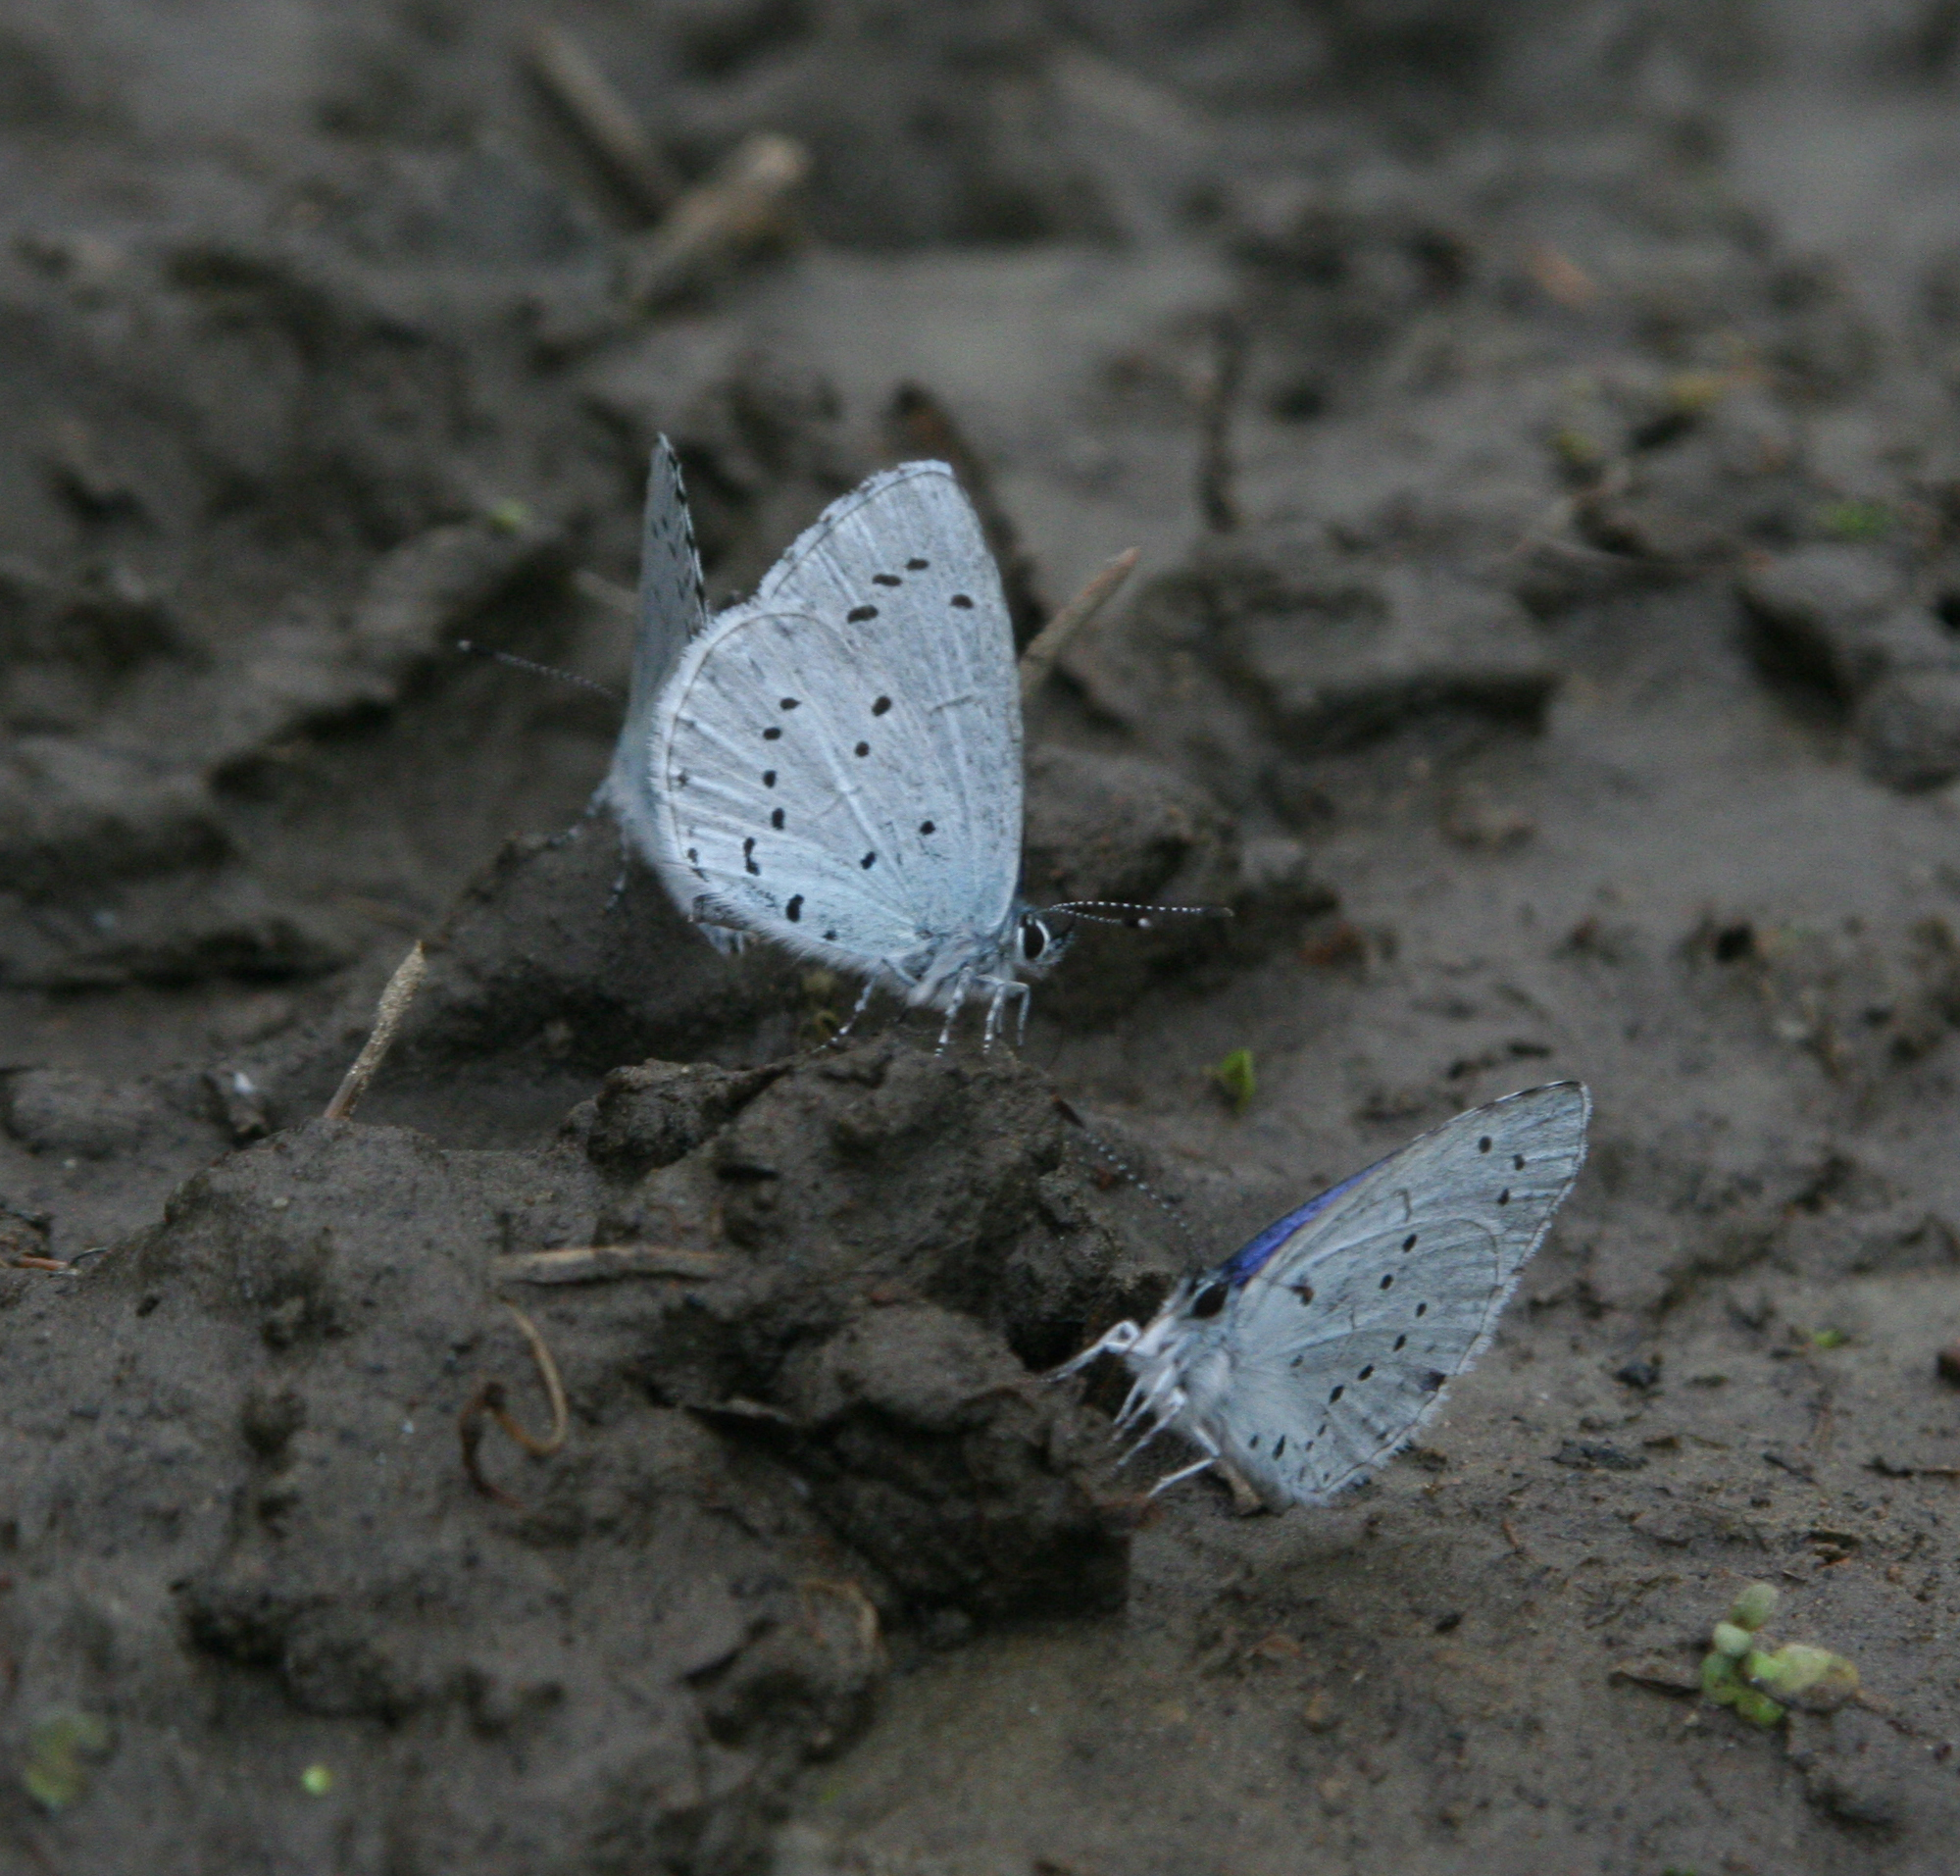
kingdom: Animalia
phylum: Arthropoda
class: Insecta
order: Lepidoptera
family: Lycaenidae
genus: Celastrina
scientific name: Celastrina argiolus
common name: Holly blue
